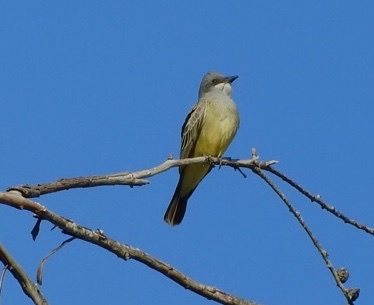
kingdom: Animalia
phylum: Chordata
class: Aves
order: Passeriformes
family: Tyrannidae
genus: Tyrannus
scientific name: Tyrannus vociferans
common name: Cassin's kingbird
